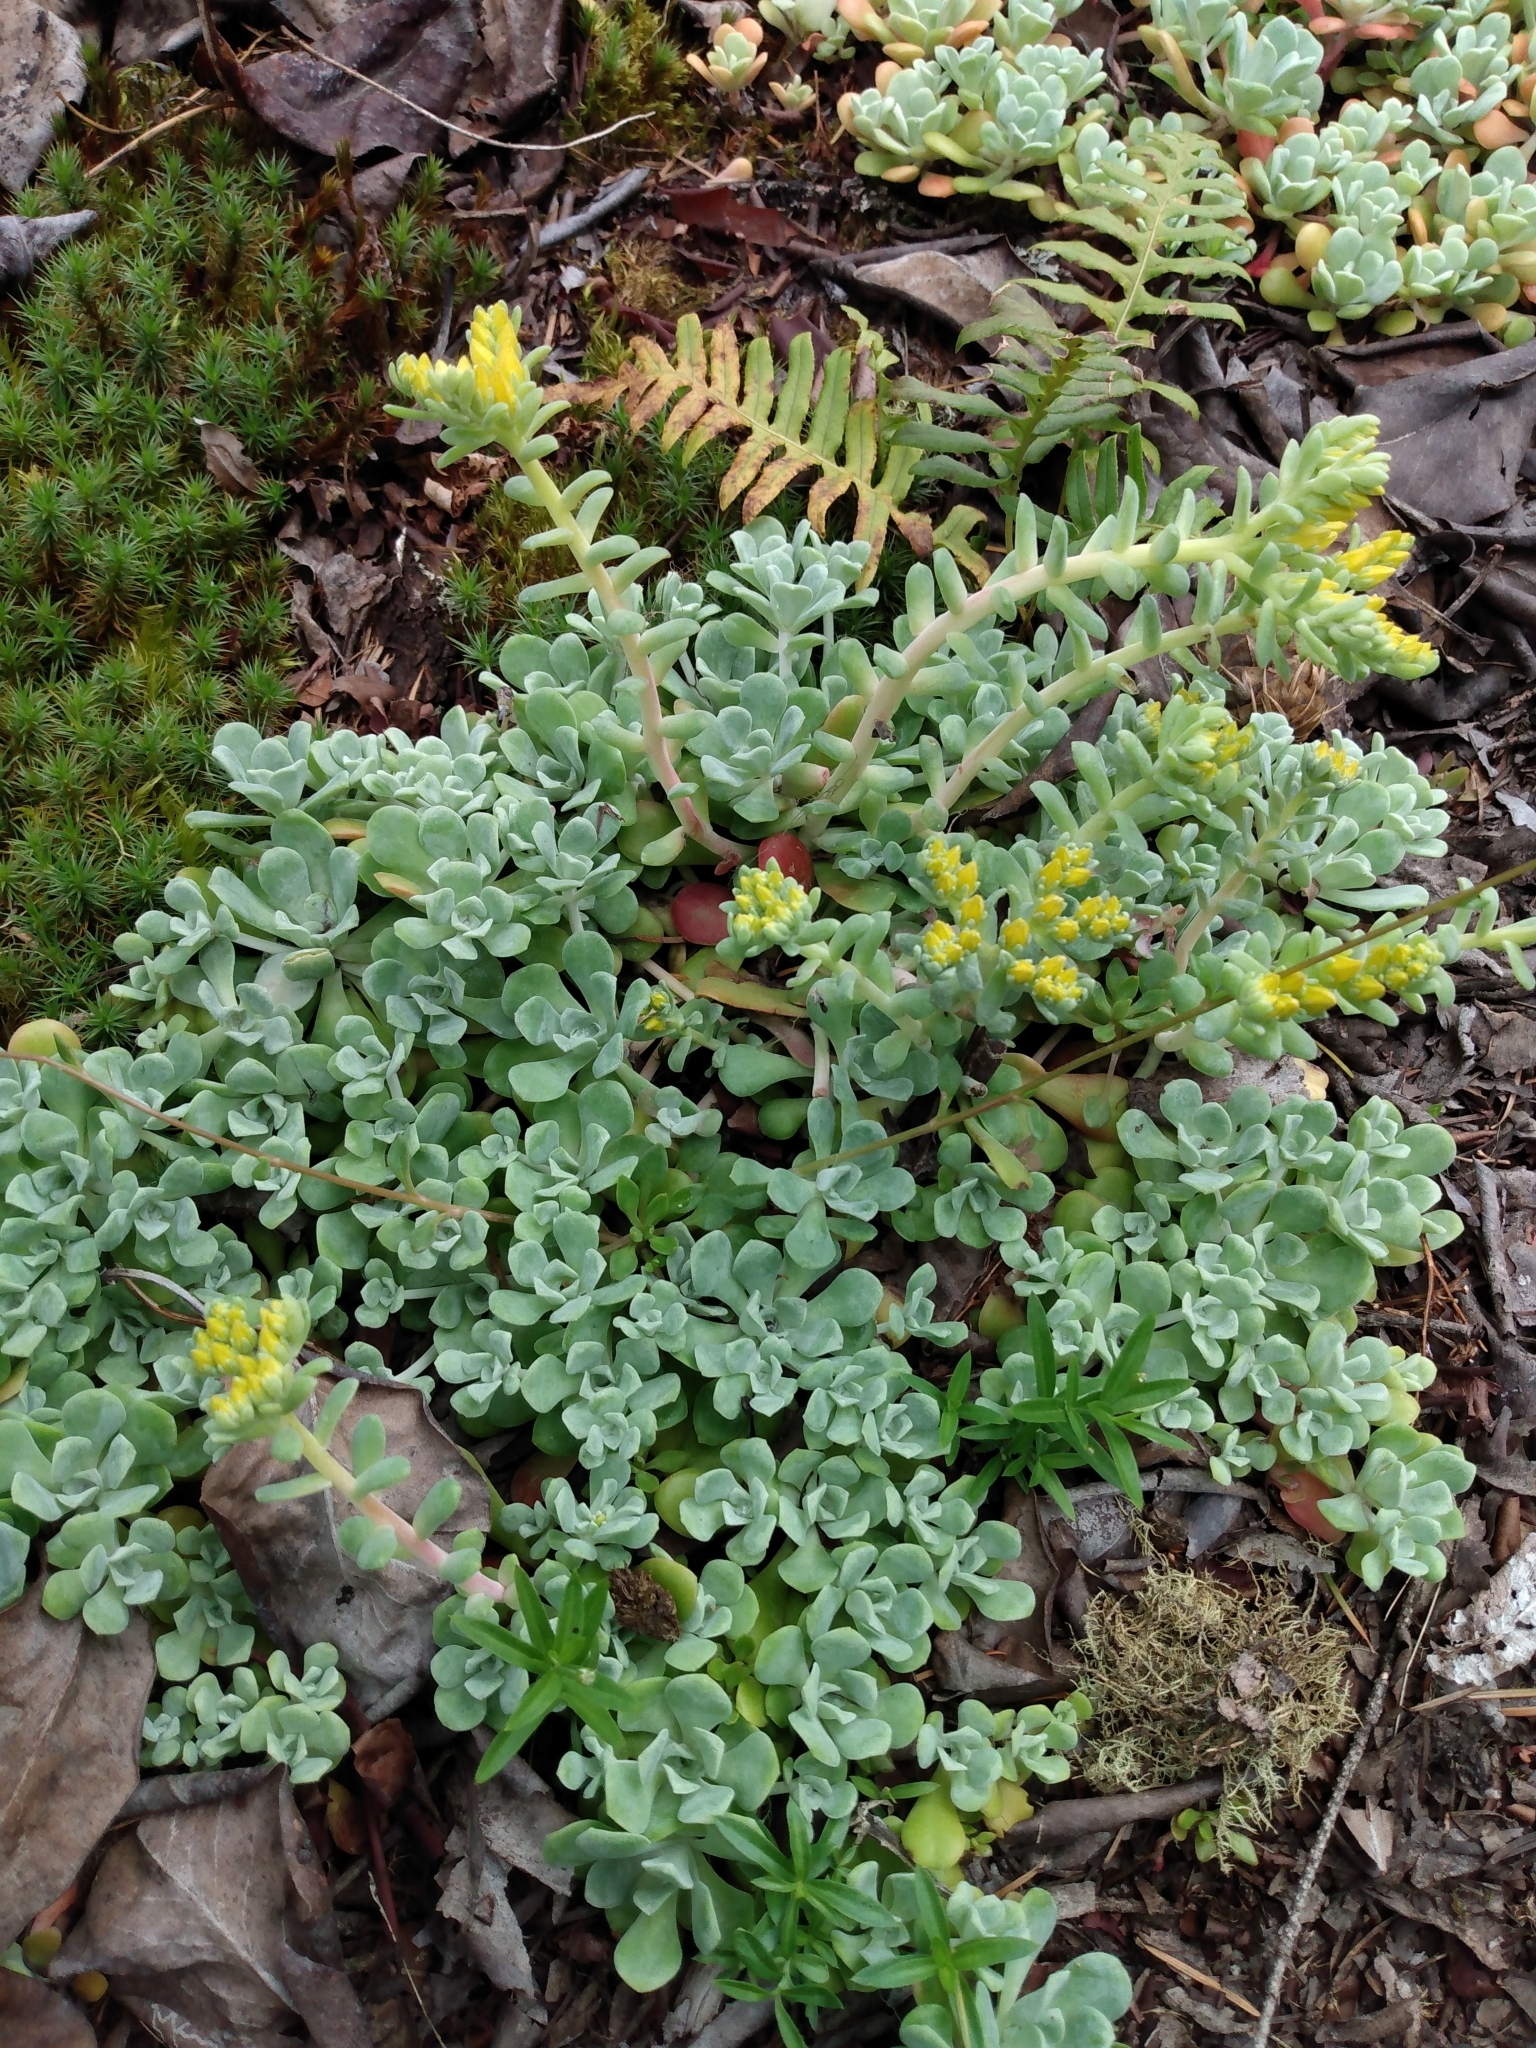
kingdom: Plantae
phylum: Tracheophyta
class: Magnoliopsida
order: Saxifragales
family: Crassulaceae
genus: Sedum
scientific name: Sedum spathulifolium
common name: Colorado stonecrop
